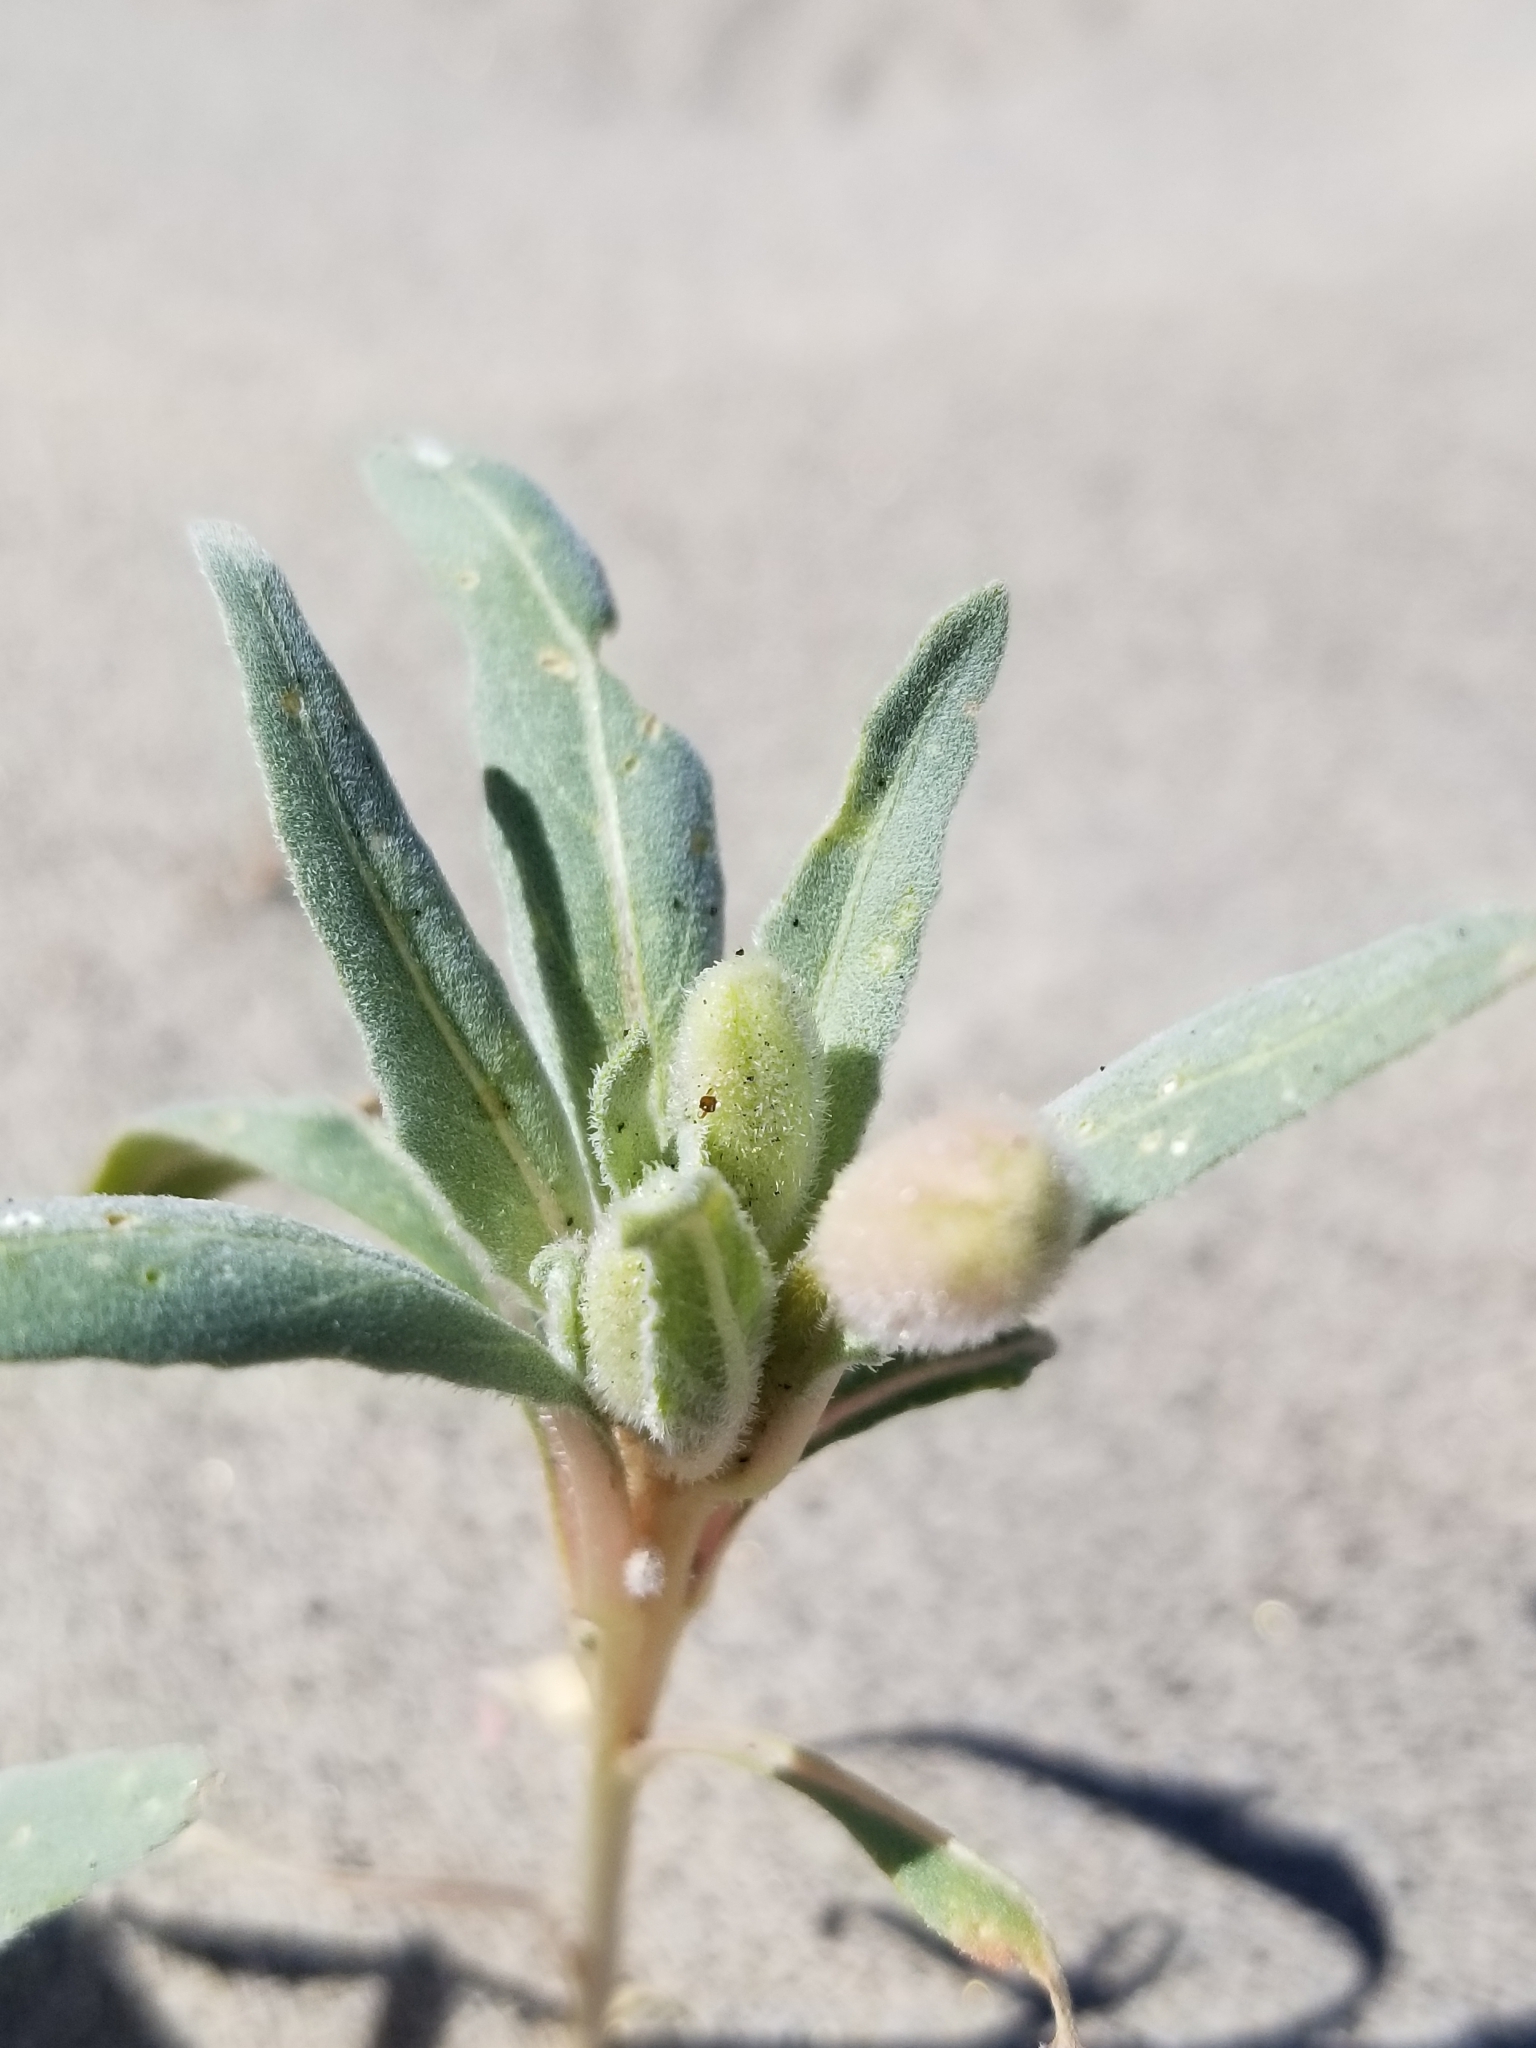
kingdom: Plantae
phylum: Tracheophyta
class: Magnoliopsida
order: Myrtales
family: Onagraceae
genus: Oenothera
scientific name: Oenothera deltoides
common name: Basket evening-primrose
